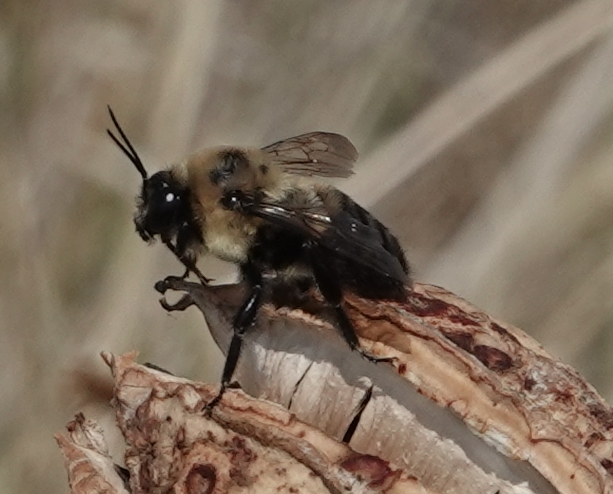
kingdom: Animalia
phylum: Arthropoda
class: Insecta
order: Hymenoptera
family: Apidae
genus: Bombus
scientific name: Bombus griseocollis
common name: Brown-belted bumble bee
